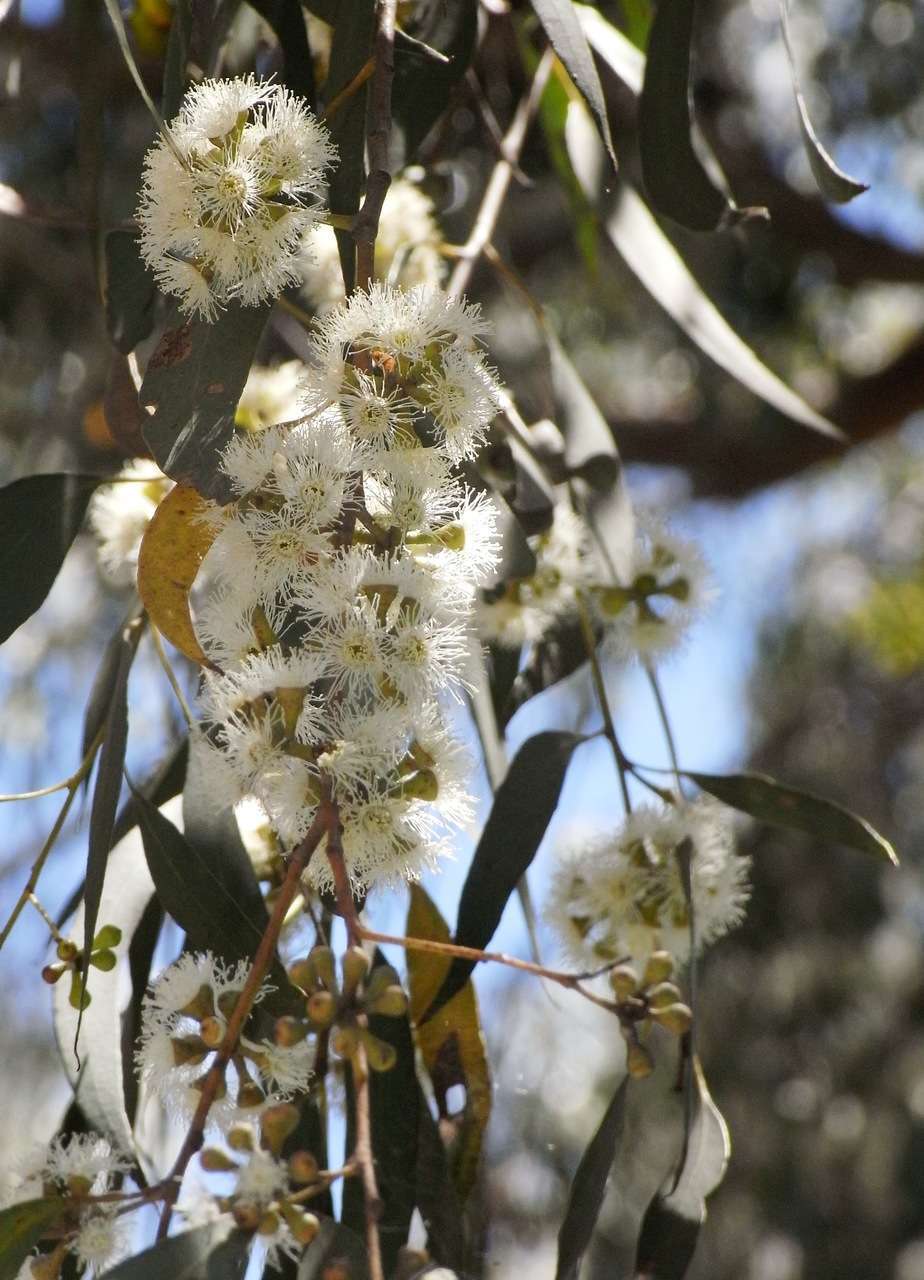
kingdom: Plantae
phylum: Tracheophyta
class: Magnoliopsida
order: Myrtales
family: Myrtaceae
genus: Eucalyptus
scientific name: Eucalyptus radiata
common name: Narrow-leaved-peppermint
